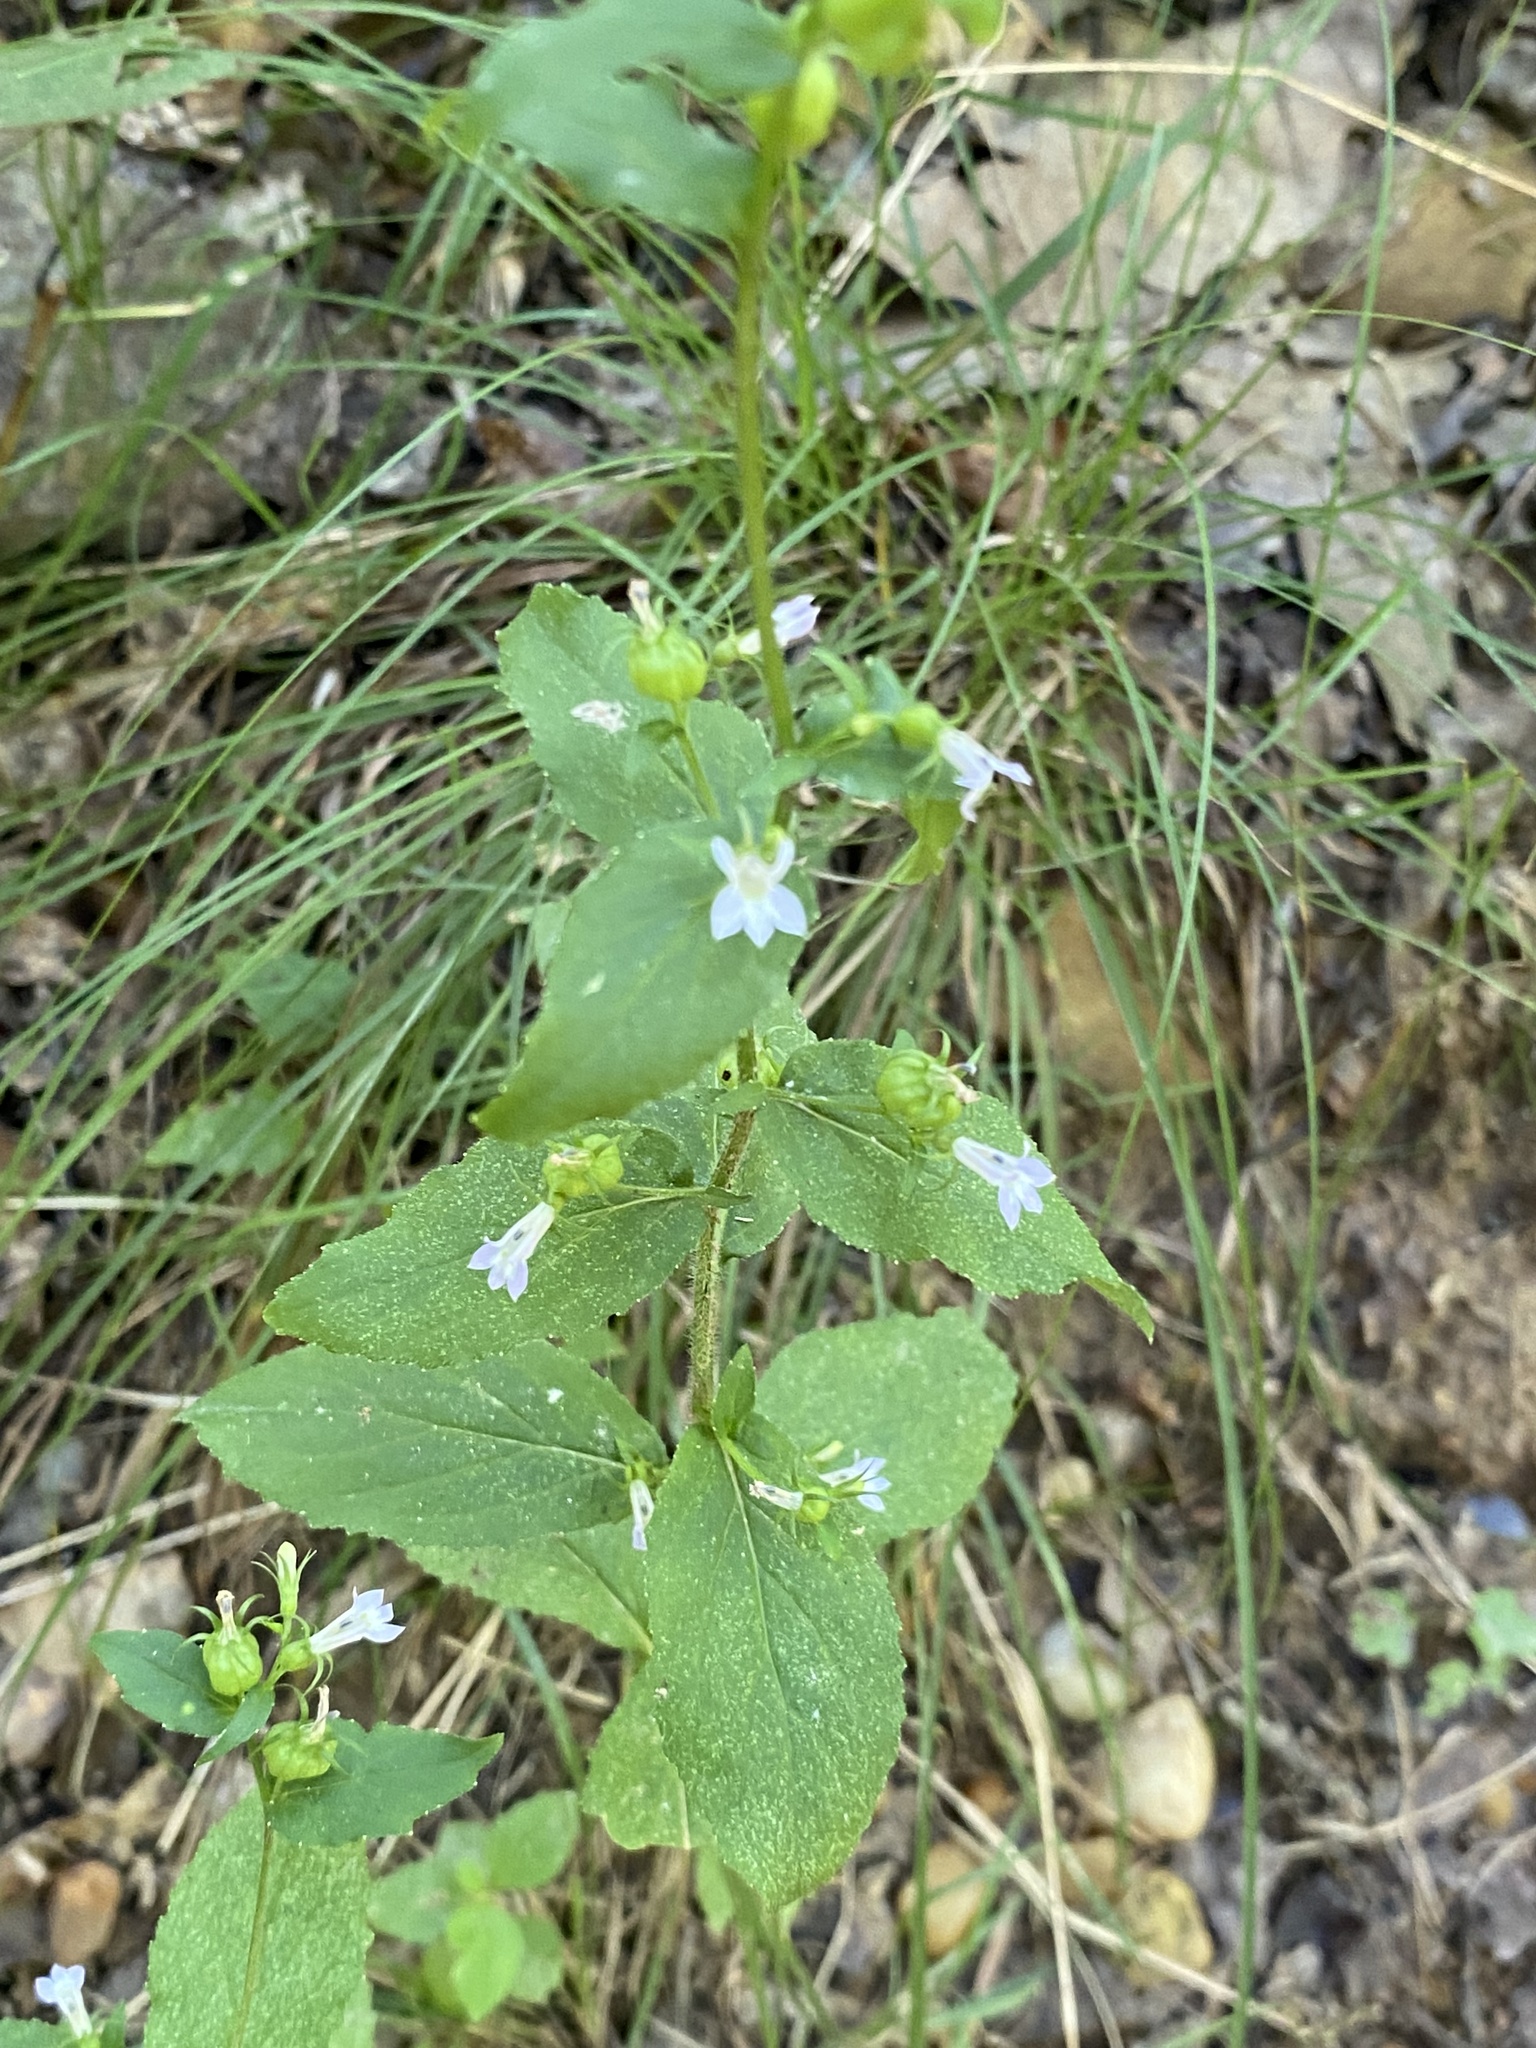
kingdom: Plantae
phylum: Tracheophyta
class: Magnoliopsida
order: Asterales
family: Campanulaceae
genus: Lobelia
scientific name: Lobelia inflata
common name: Indian tobacco
